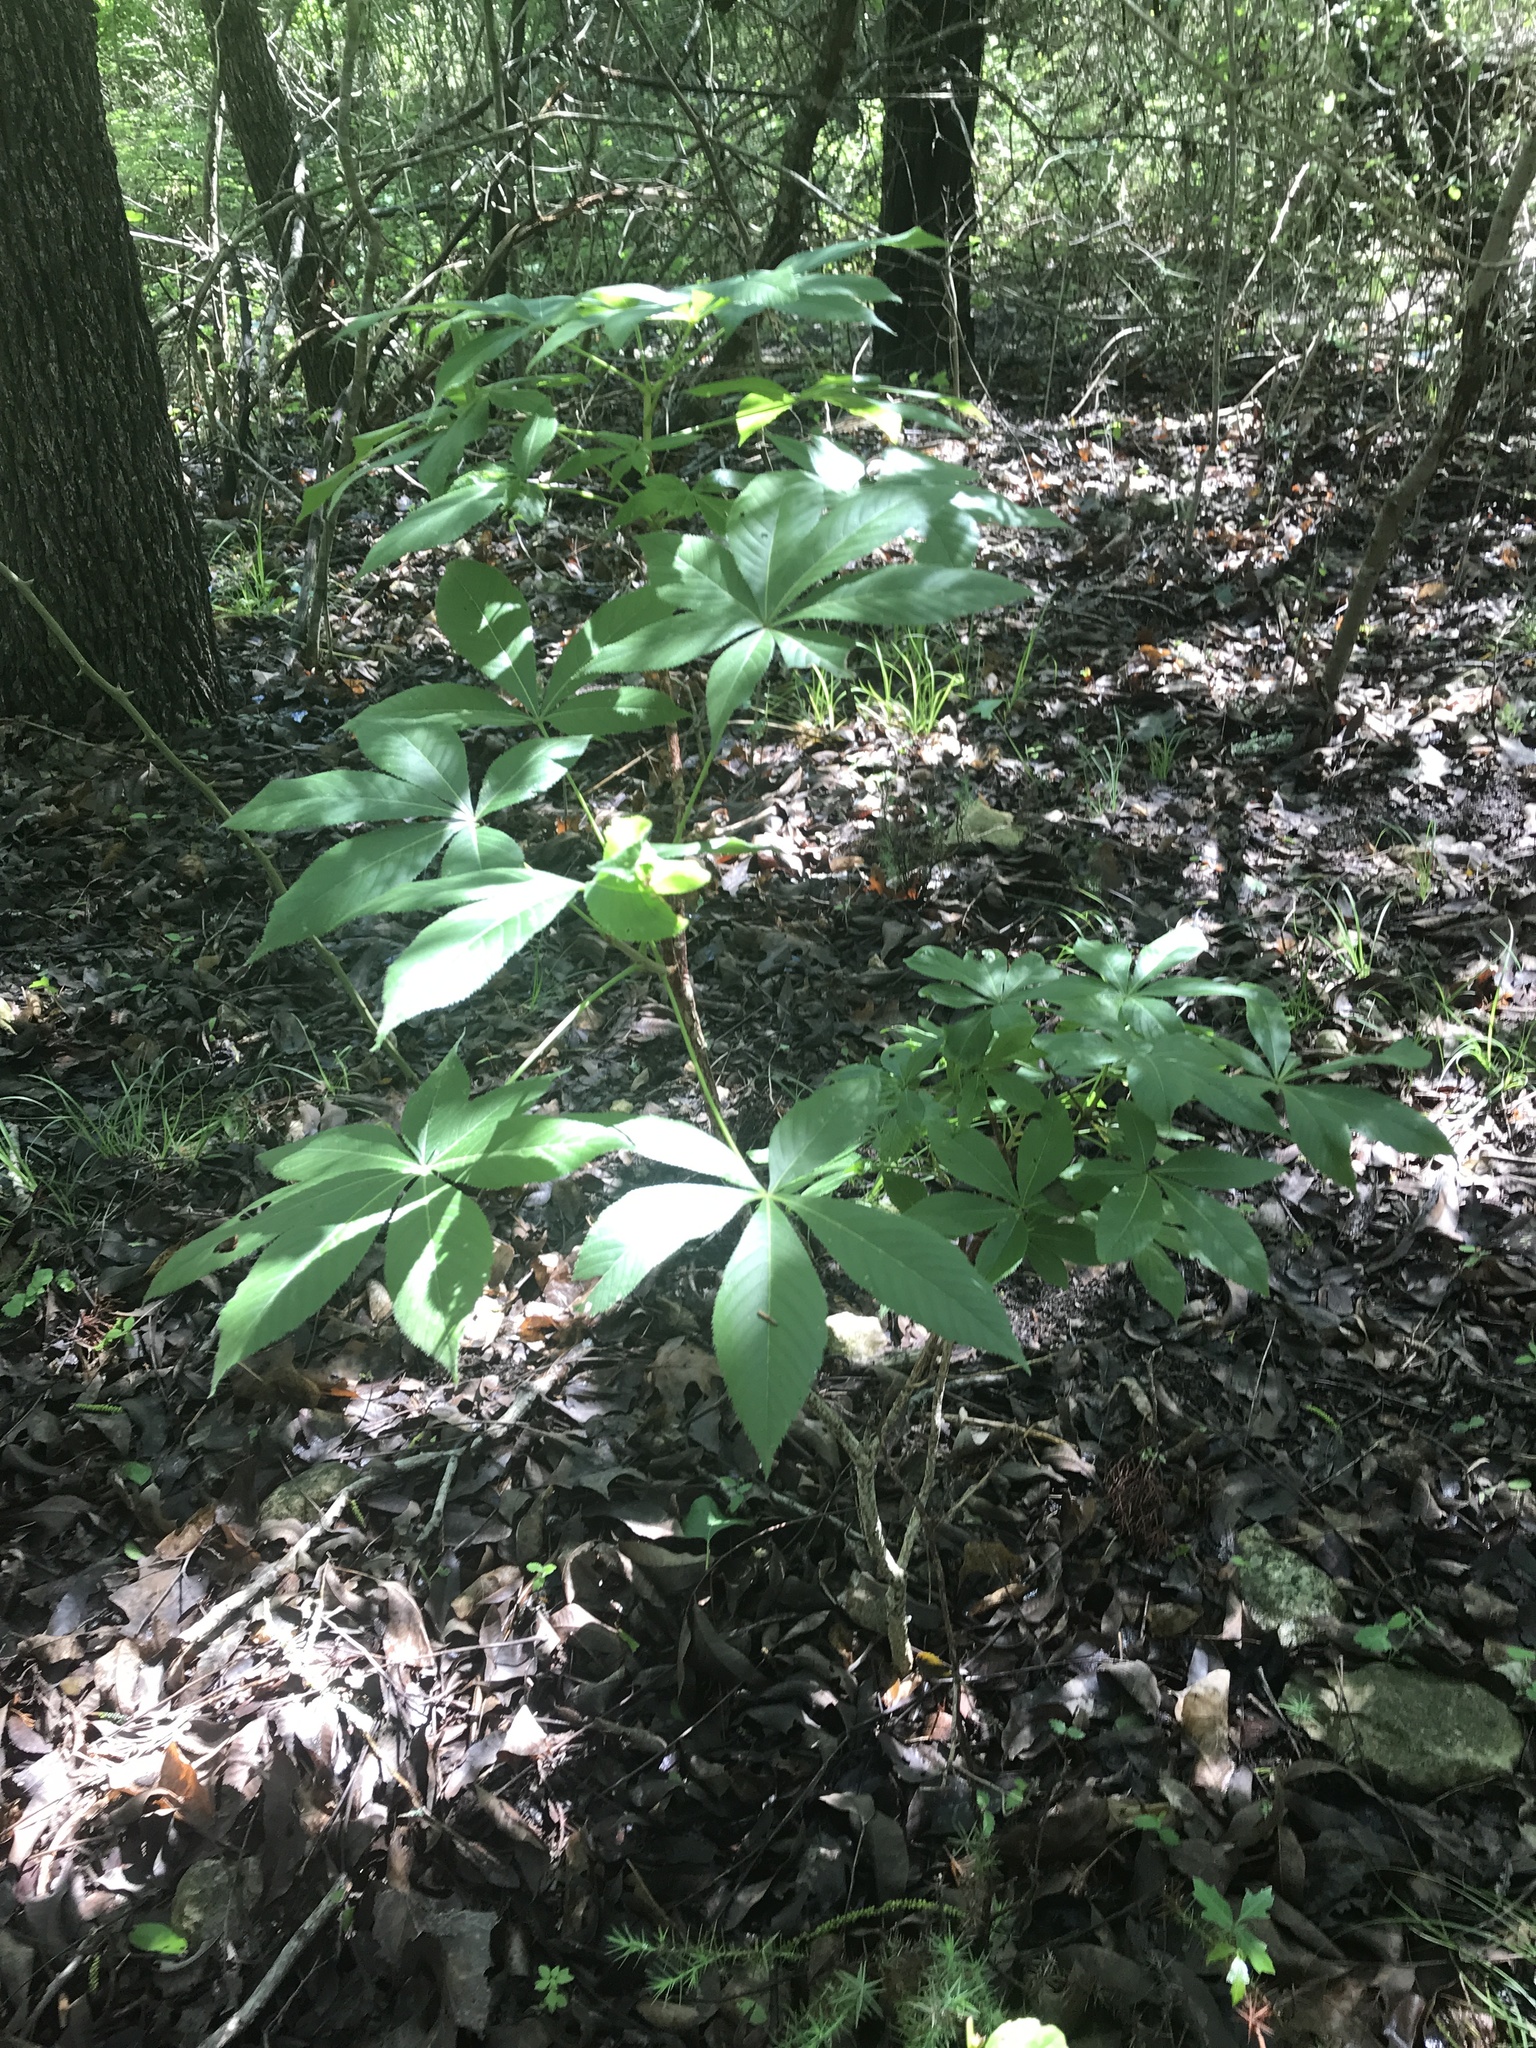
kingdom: Plantae
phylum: Tracheophyta
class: Magnoliopsida
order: Sapindales
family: Sapindaceae
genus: Aesculus
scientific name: Aesculus glabra
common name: Ohio buckeye
